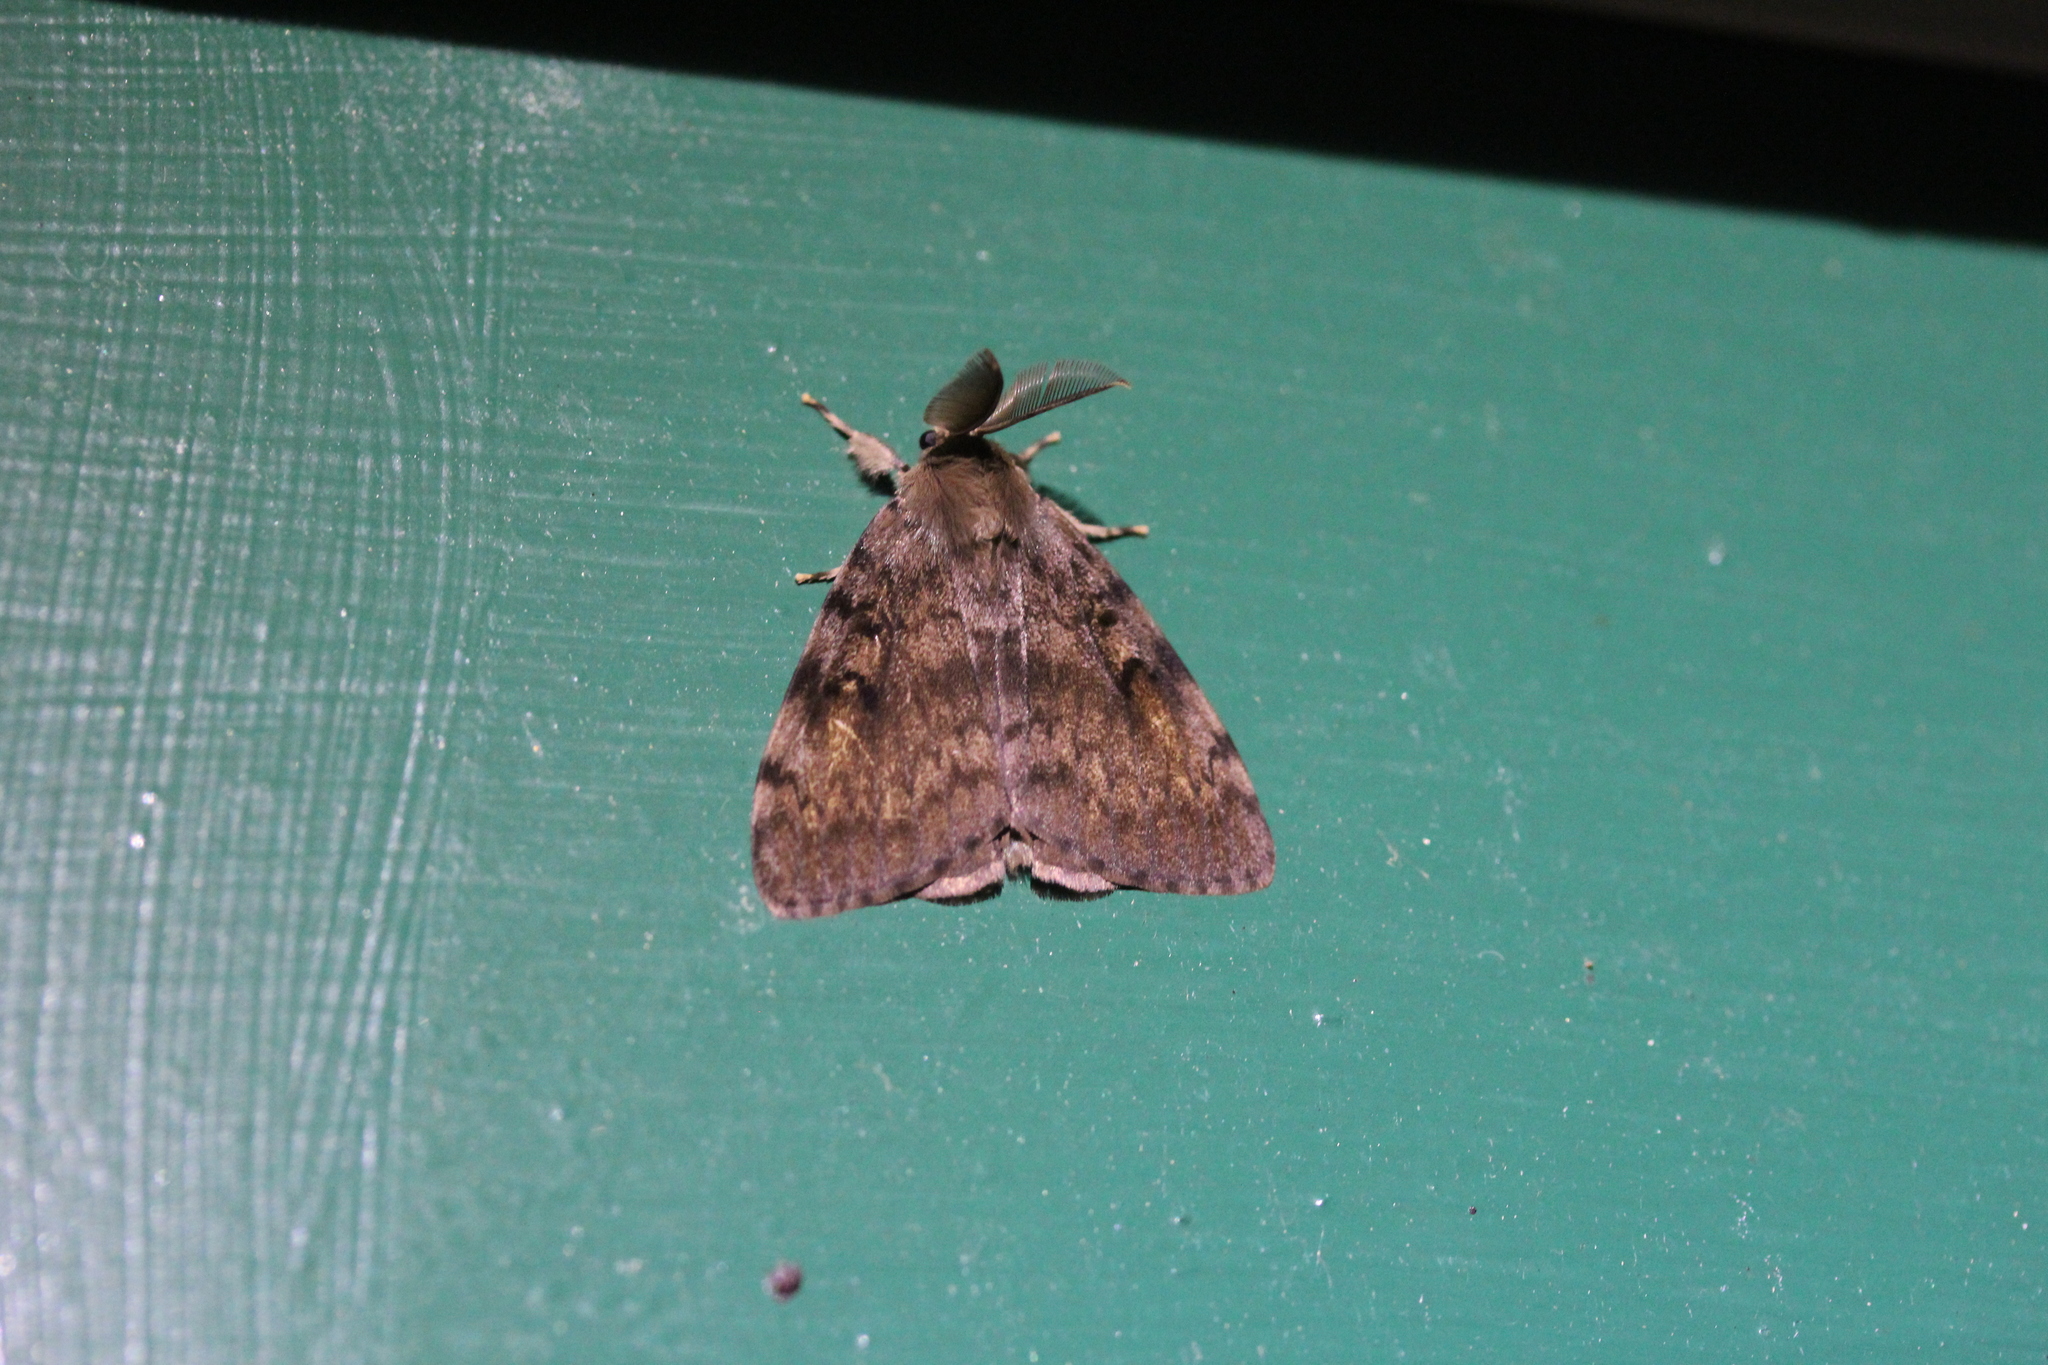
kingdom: Animalia
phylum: Arthropoda
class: Insecta
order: Lepidoptera
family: Erebidae
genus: Lymantria
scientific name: Lymantria dispar
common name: Gypsy moth
